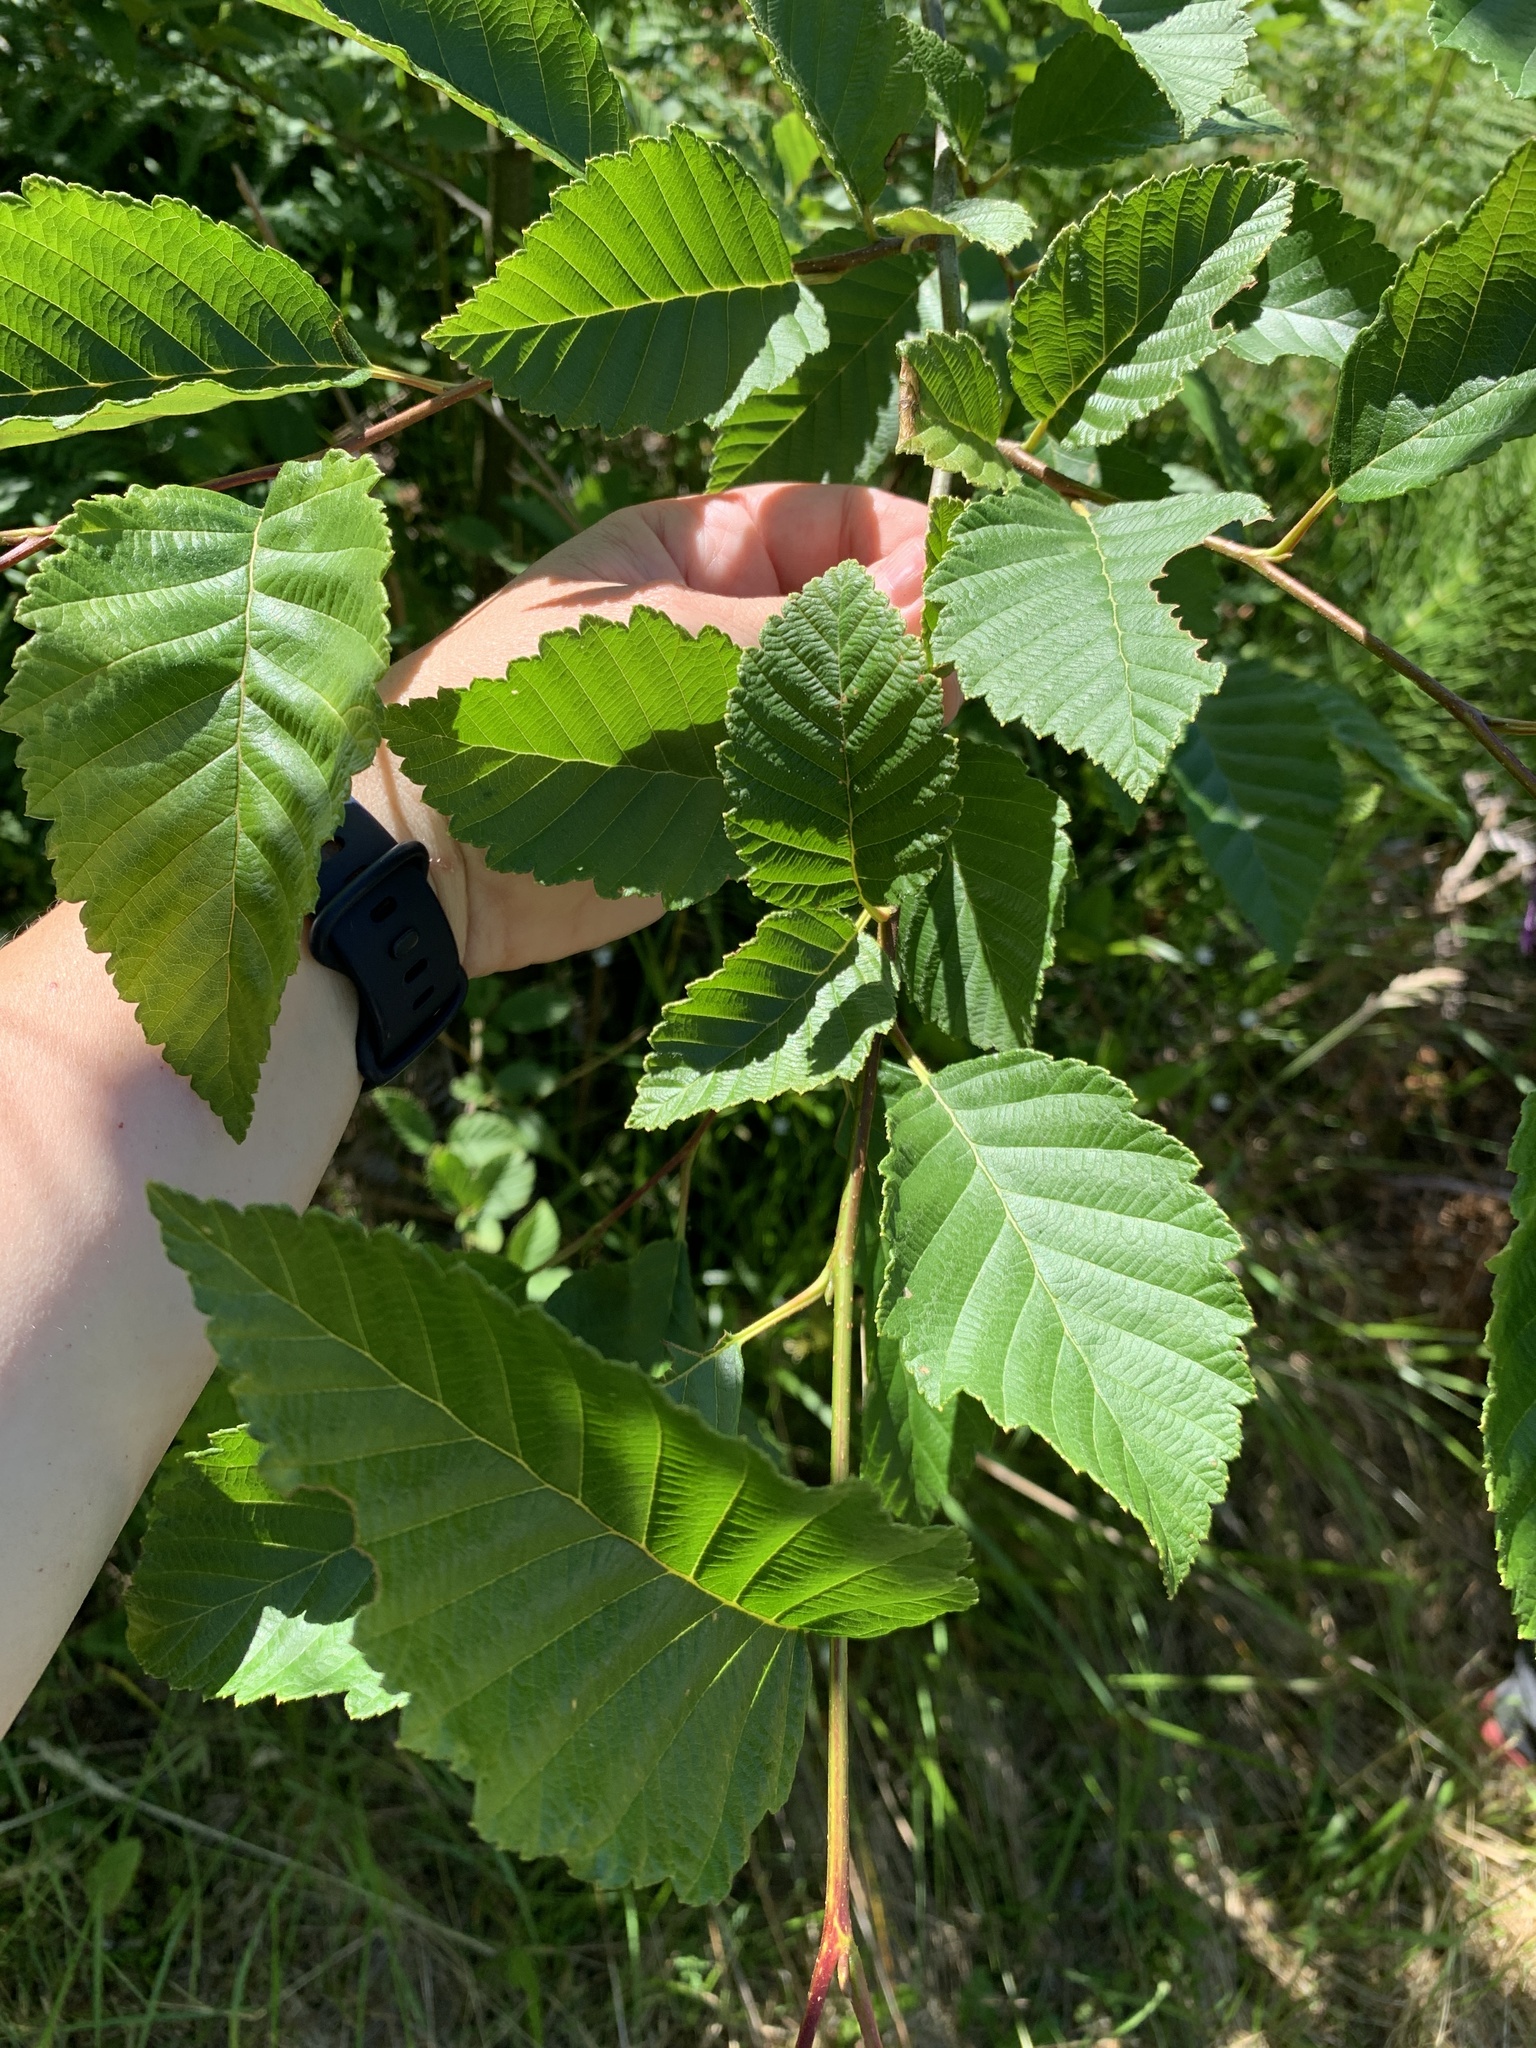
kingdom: Plantae
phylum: Tracheophyta
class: Magnoliopsida
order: Fagales
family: Betulaceae
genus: Alnus
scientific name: Alnus rubra
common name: Red alder
